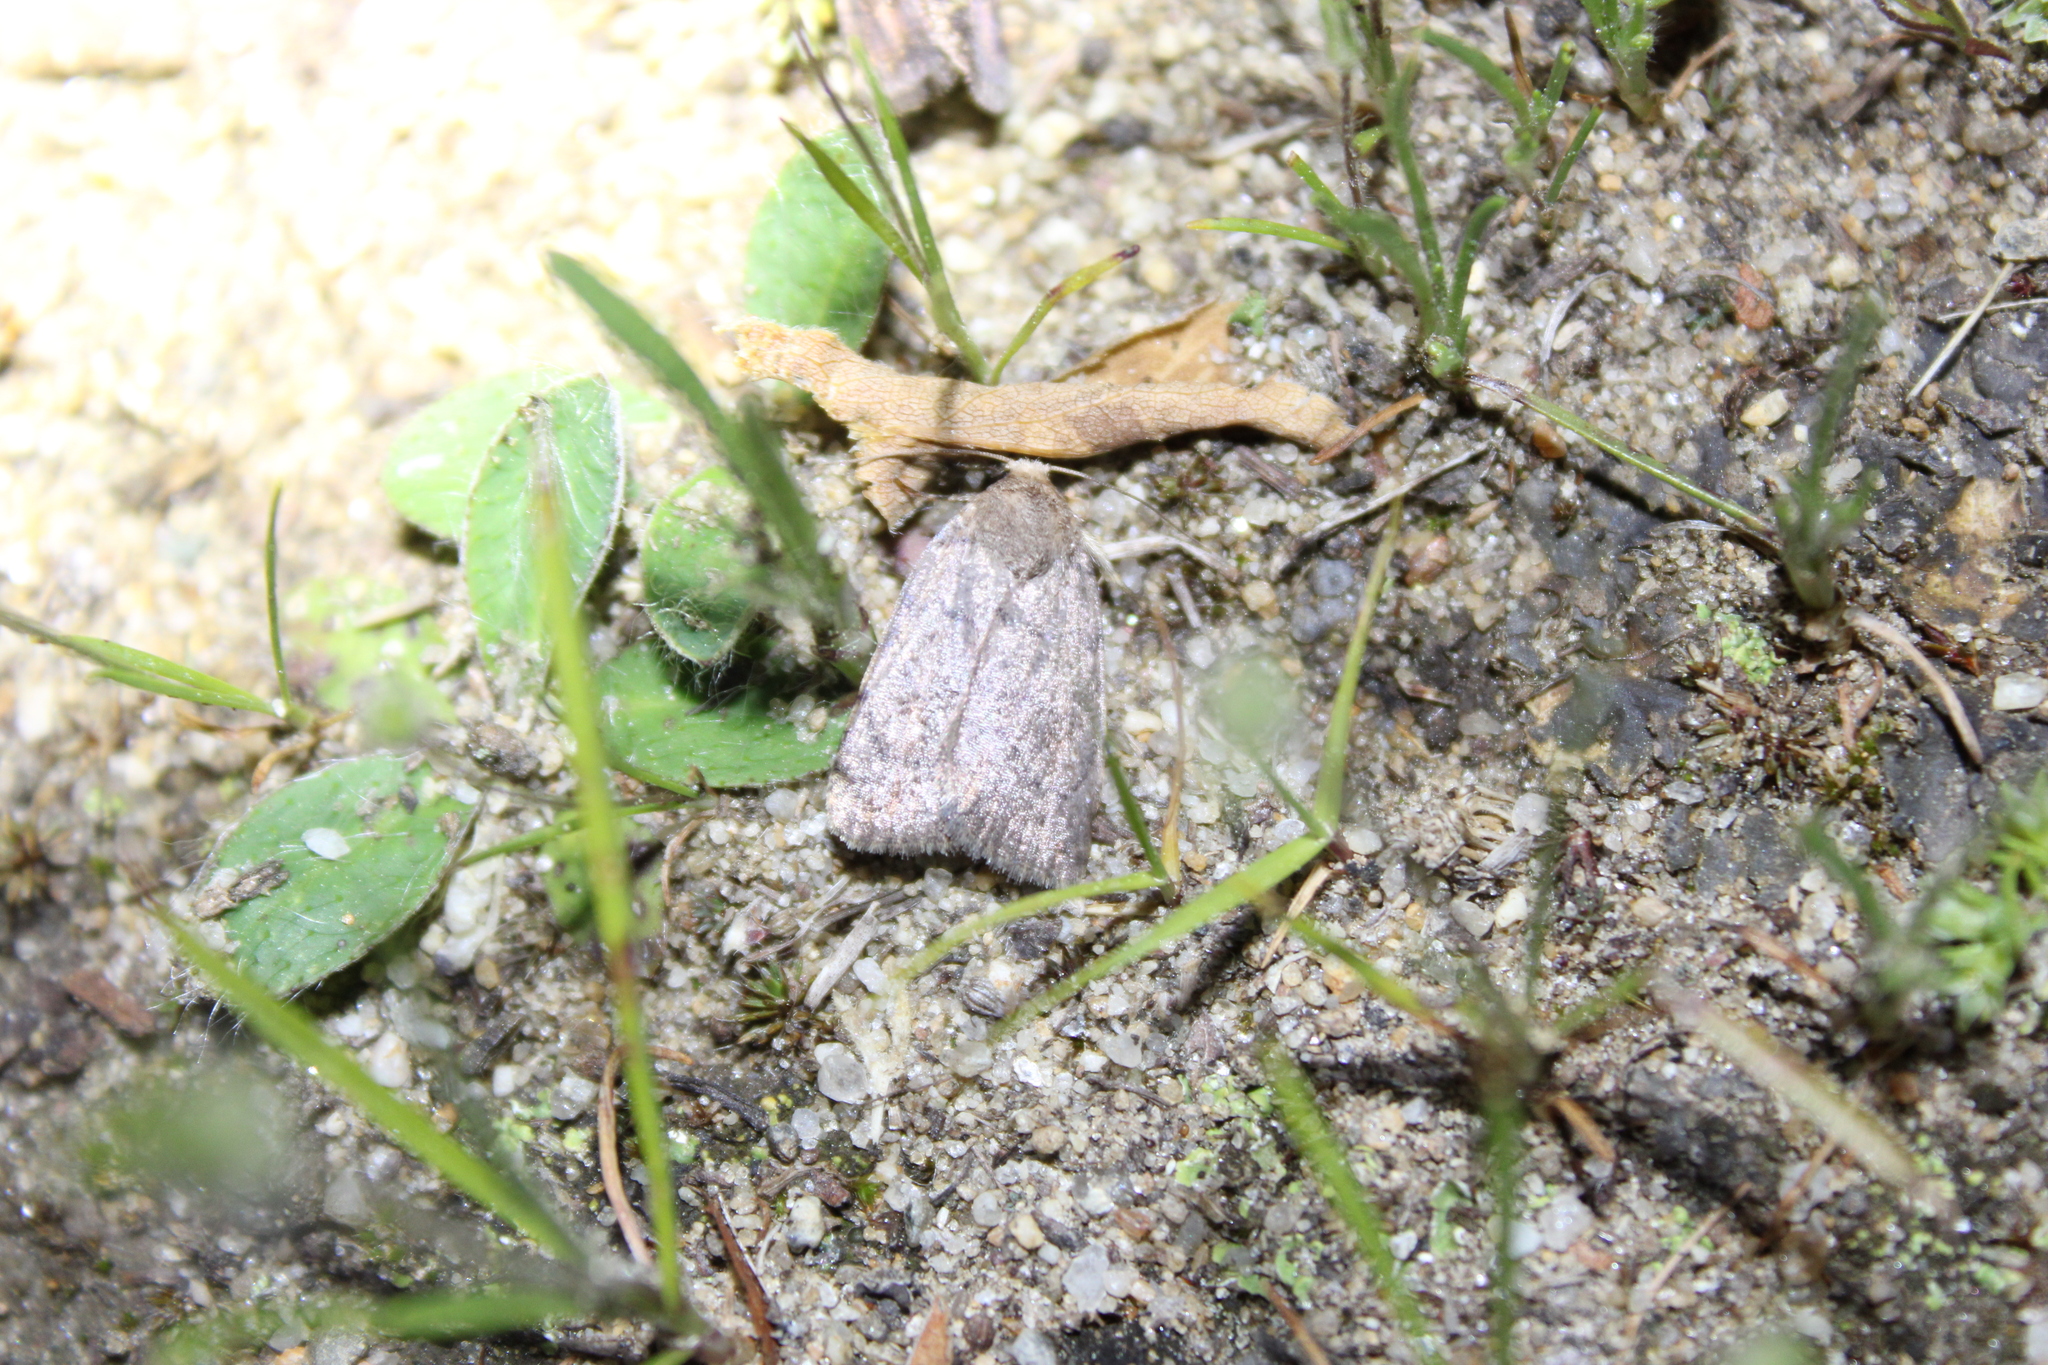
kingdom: Animalia
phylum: Arthropoda
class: Insecta
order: Lepidoptera
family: Noctuidae
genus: Athetis
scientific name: Athetis tarda
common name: Slowpoke moth
